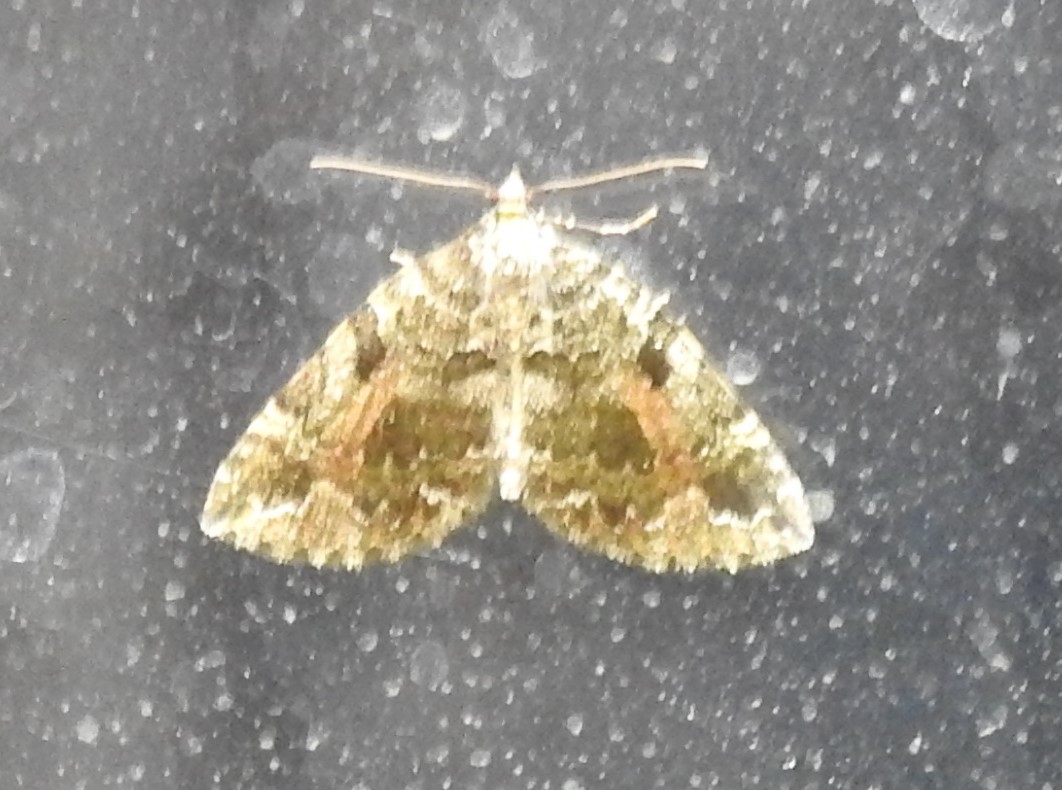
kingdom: Animalia
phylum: Arthropoda
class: Insecta
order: Lepidoptera
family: Geometridae
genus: Nebula
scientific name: Nebula mutabilis
